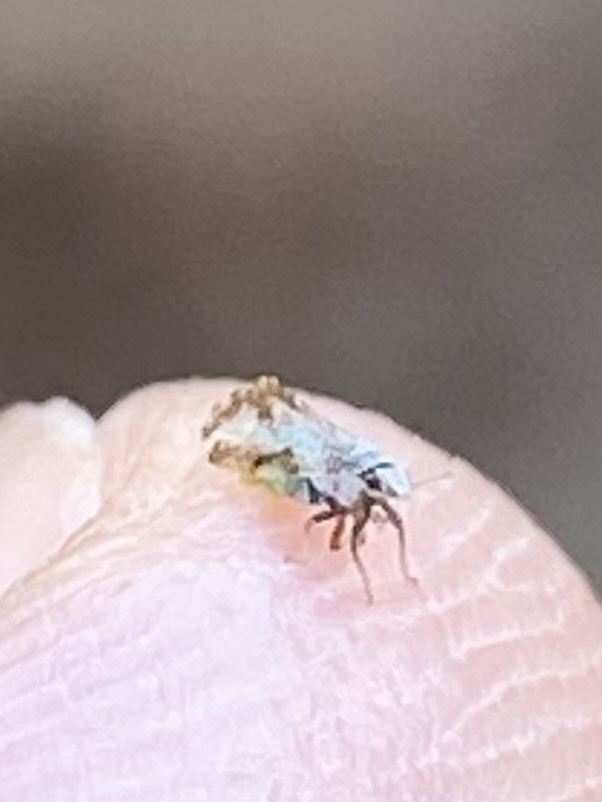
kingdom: Animalia
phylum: Arthropoda
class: Insecta
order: Hemiptera
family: Liviidae
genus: Diaphorina
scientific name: Diaphorina citri
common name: Asian citrus psyllid
